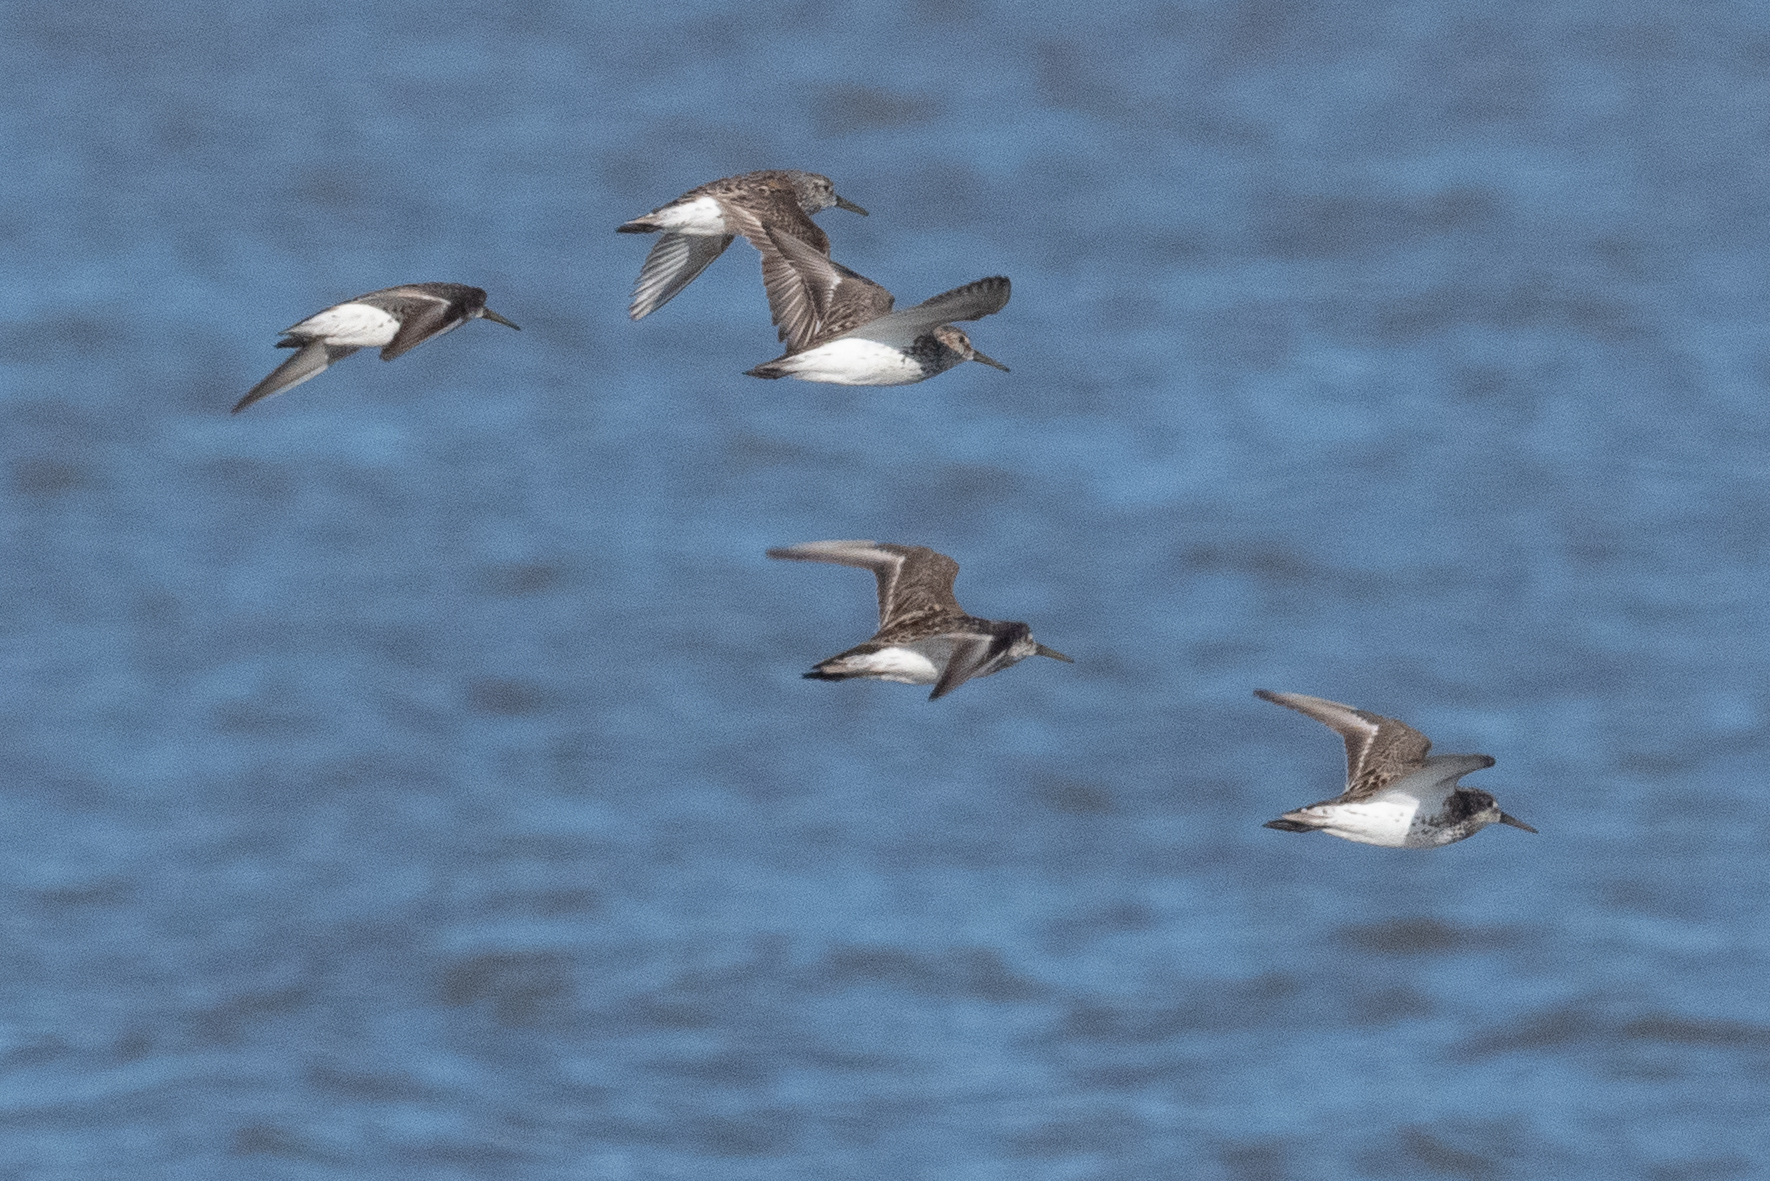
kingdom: Animalia
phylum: Chordata
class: Aves
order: Charadriiformes
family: Scolopacidae
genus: Calidris
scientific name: Calidris minutilla
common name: Least sandpiper
